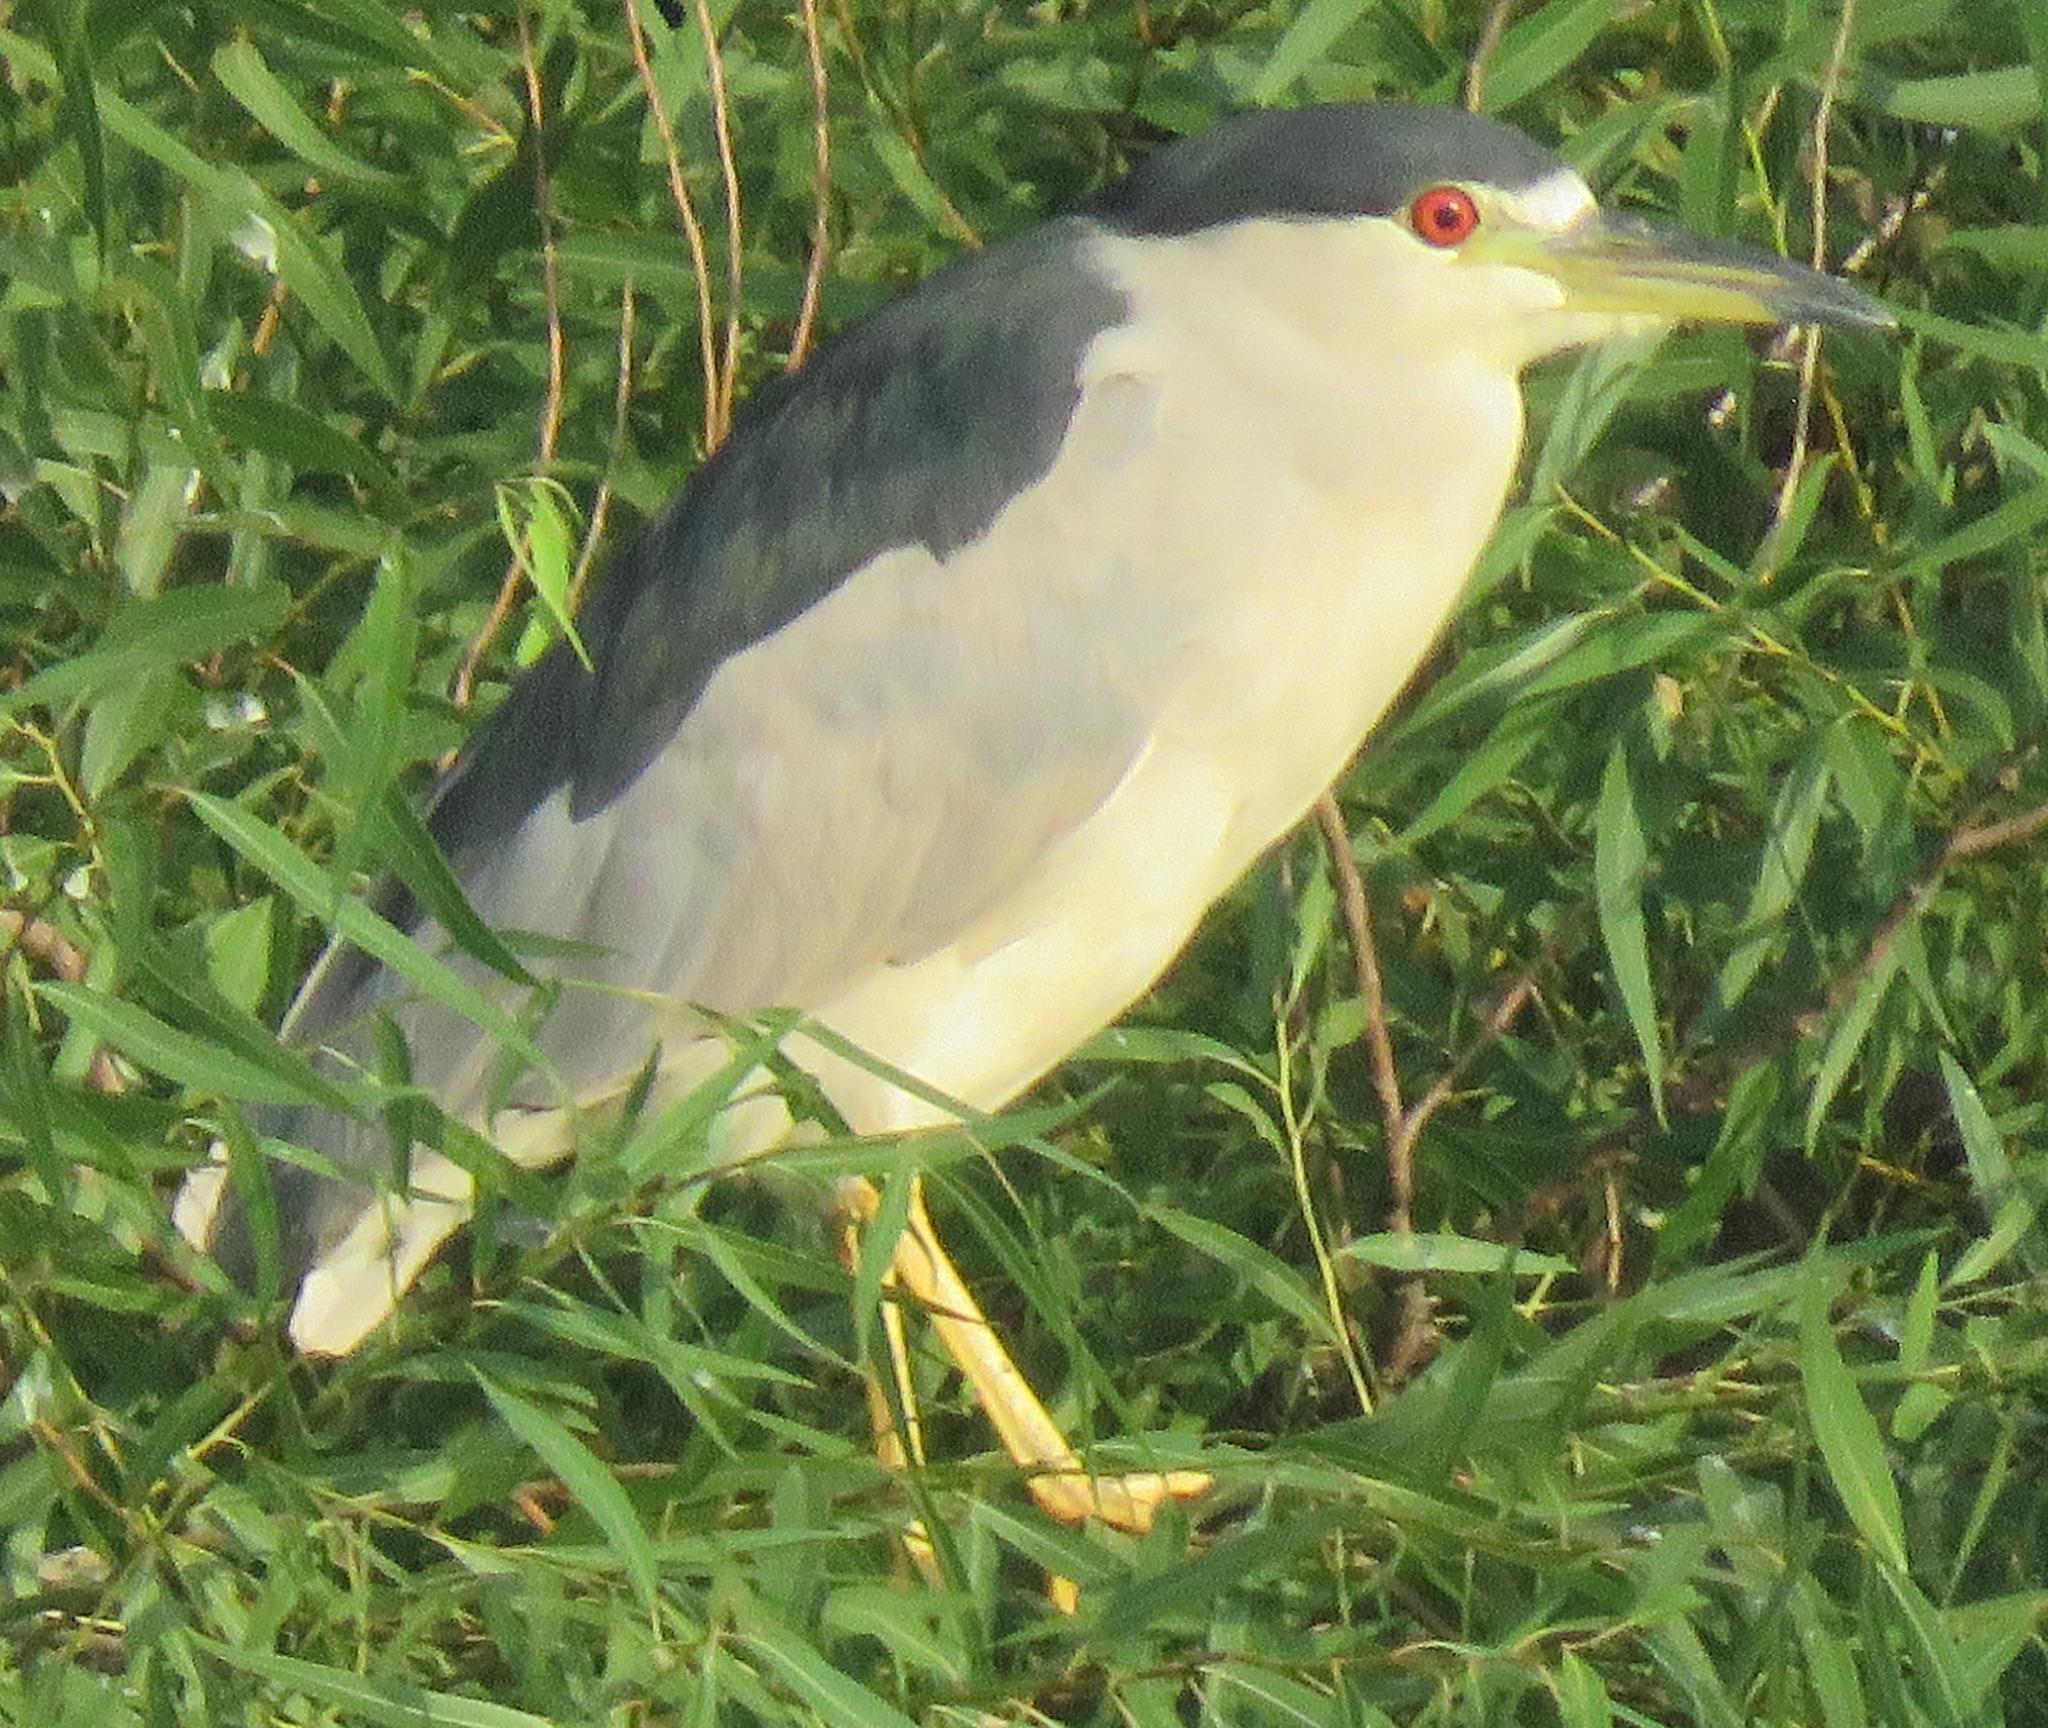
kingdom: Animalia
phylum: Chordata
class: Aves
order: Pelecaniformes
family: Ardeidae
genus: Nycticorax
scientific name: Nycticorax nycticorax
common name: Black-crowned night heron
